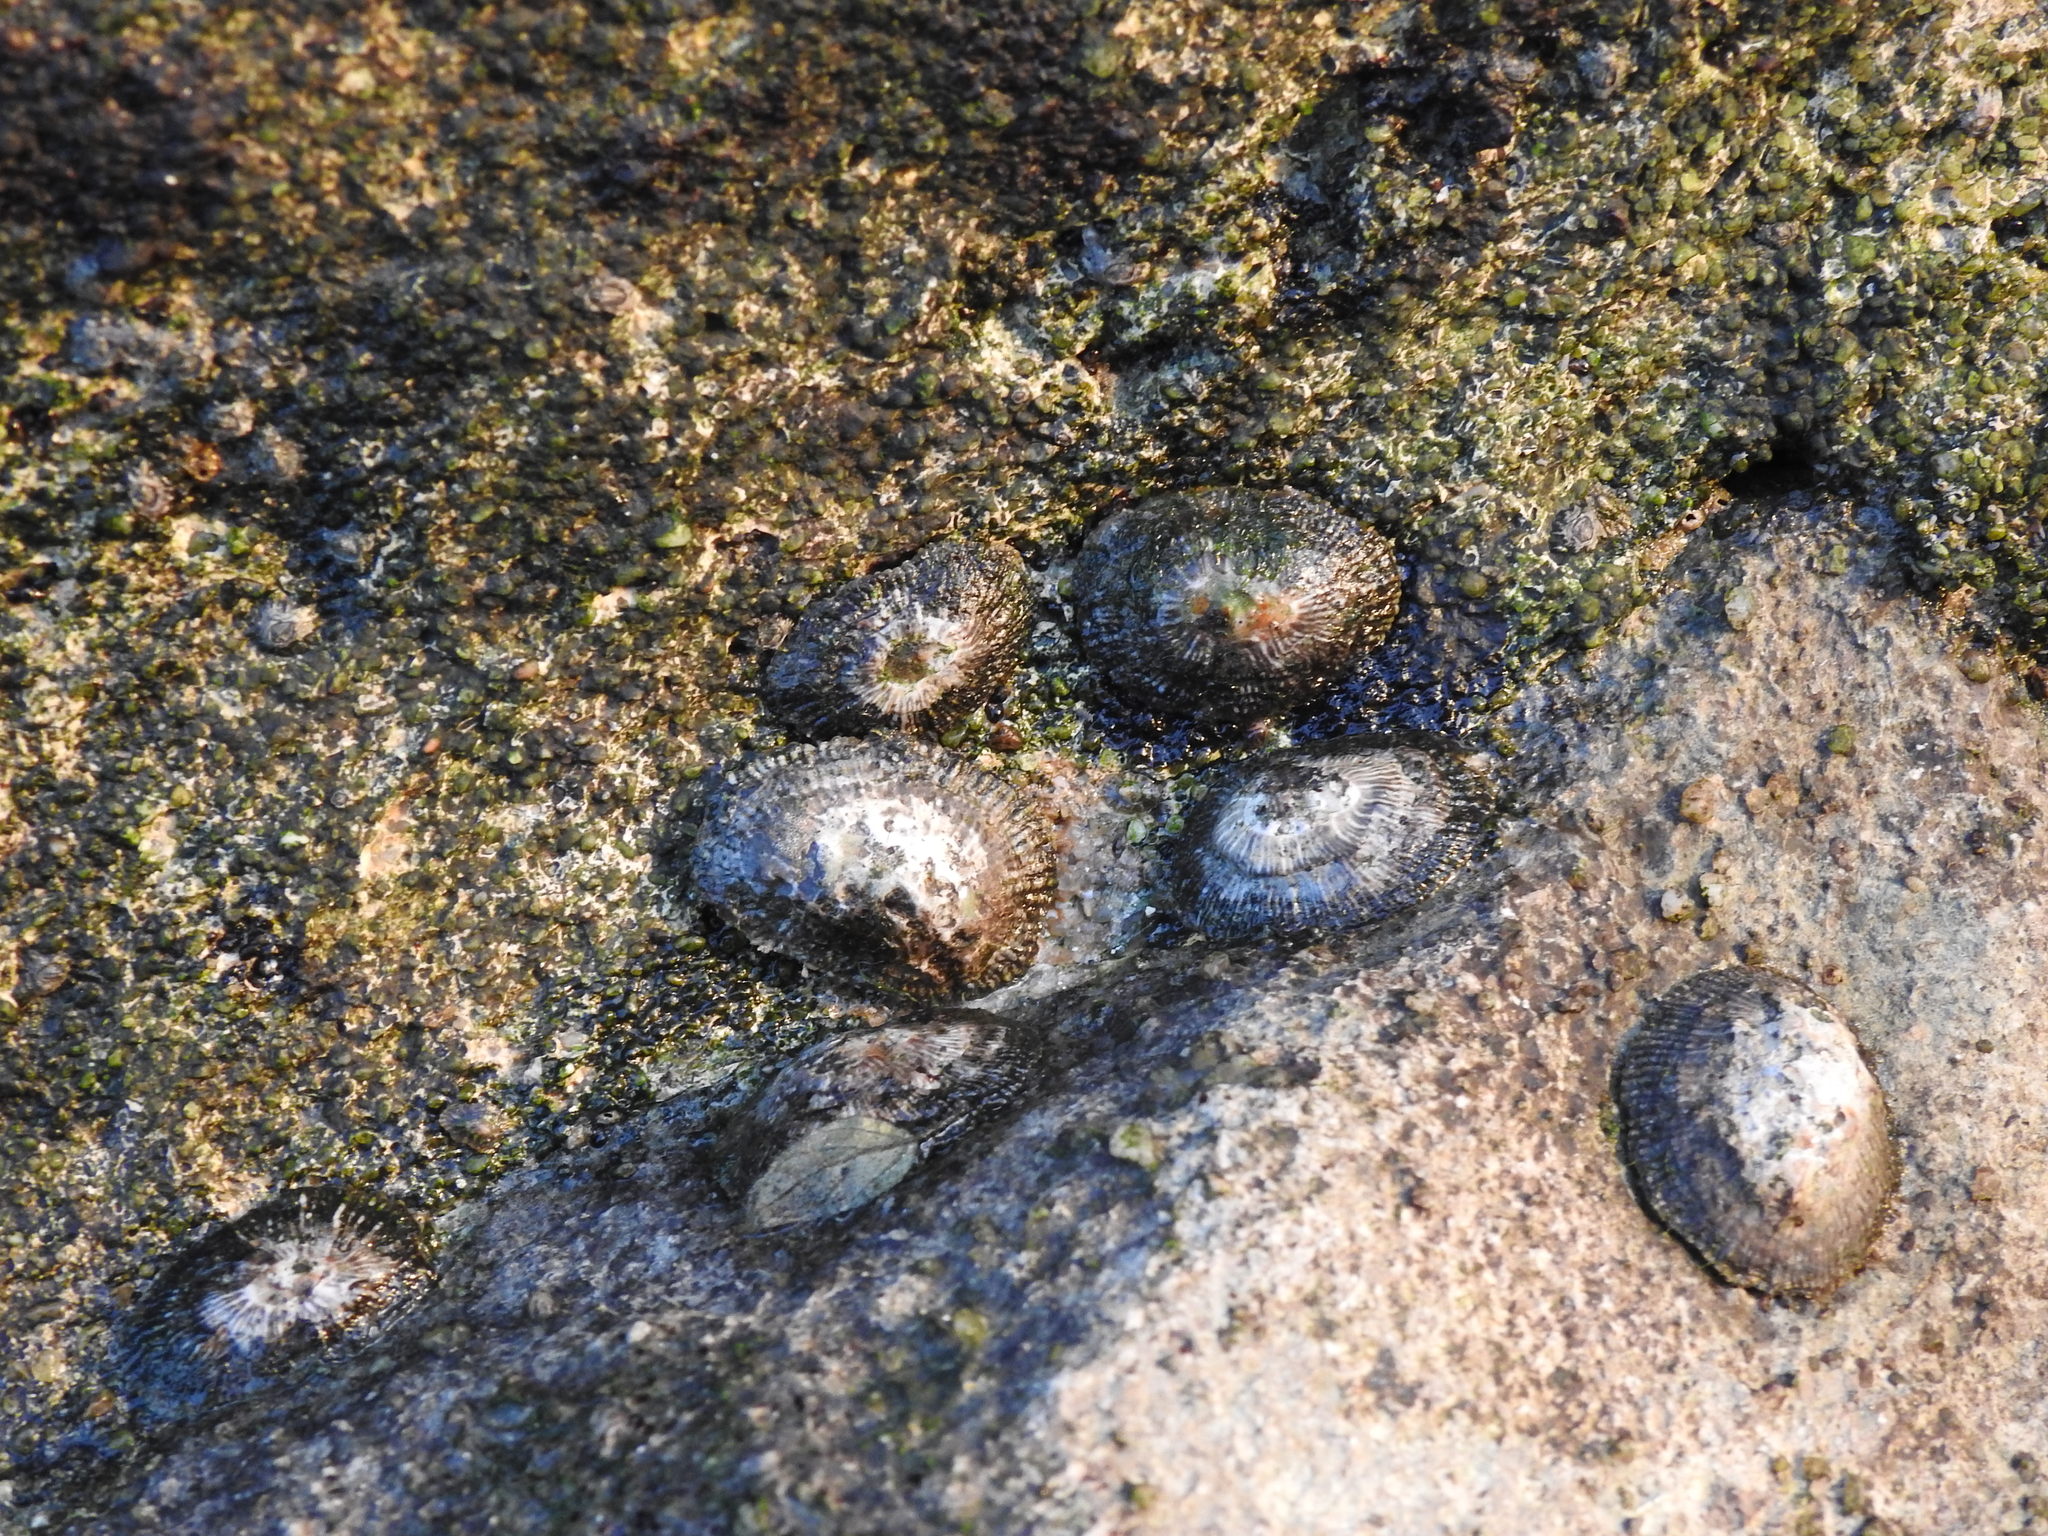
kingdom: Animalia
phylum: Mollusca
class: Gastropoda
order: Siphonariida
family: Siphonariidae
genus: Siphonaria
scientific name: Siphonaria pectinata
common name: Striped false limpet
